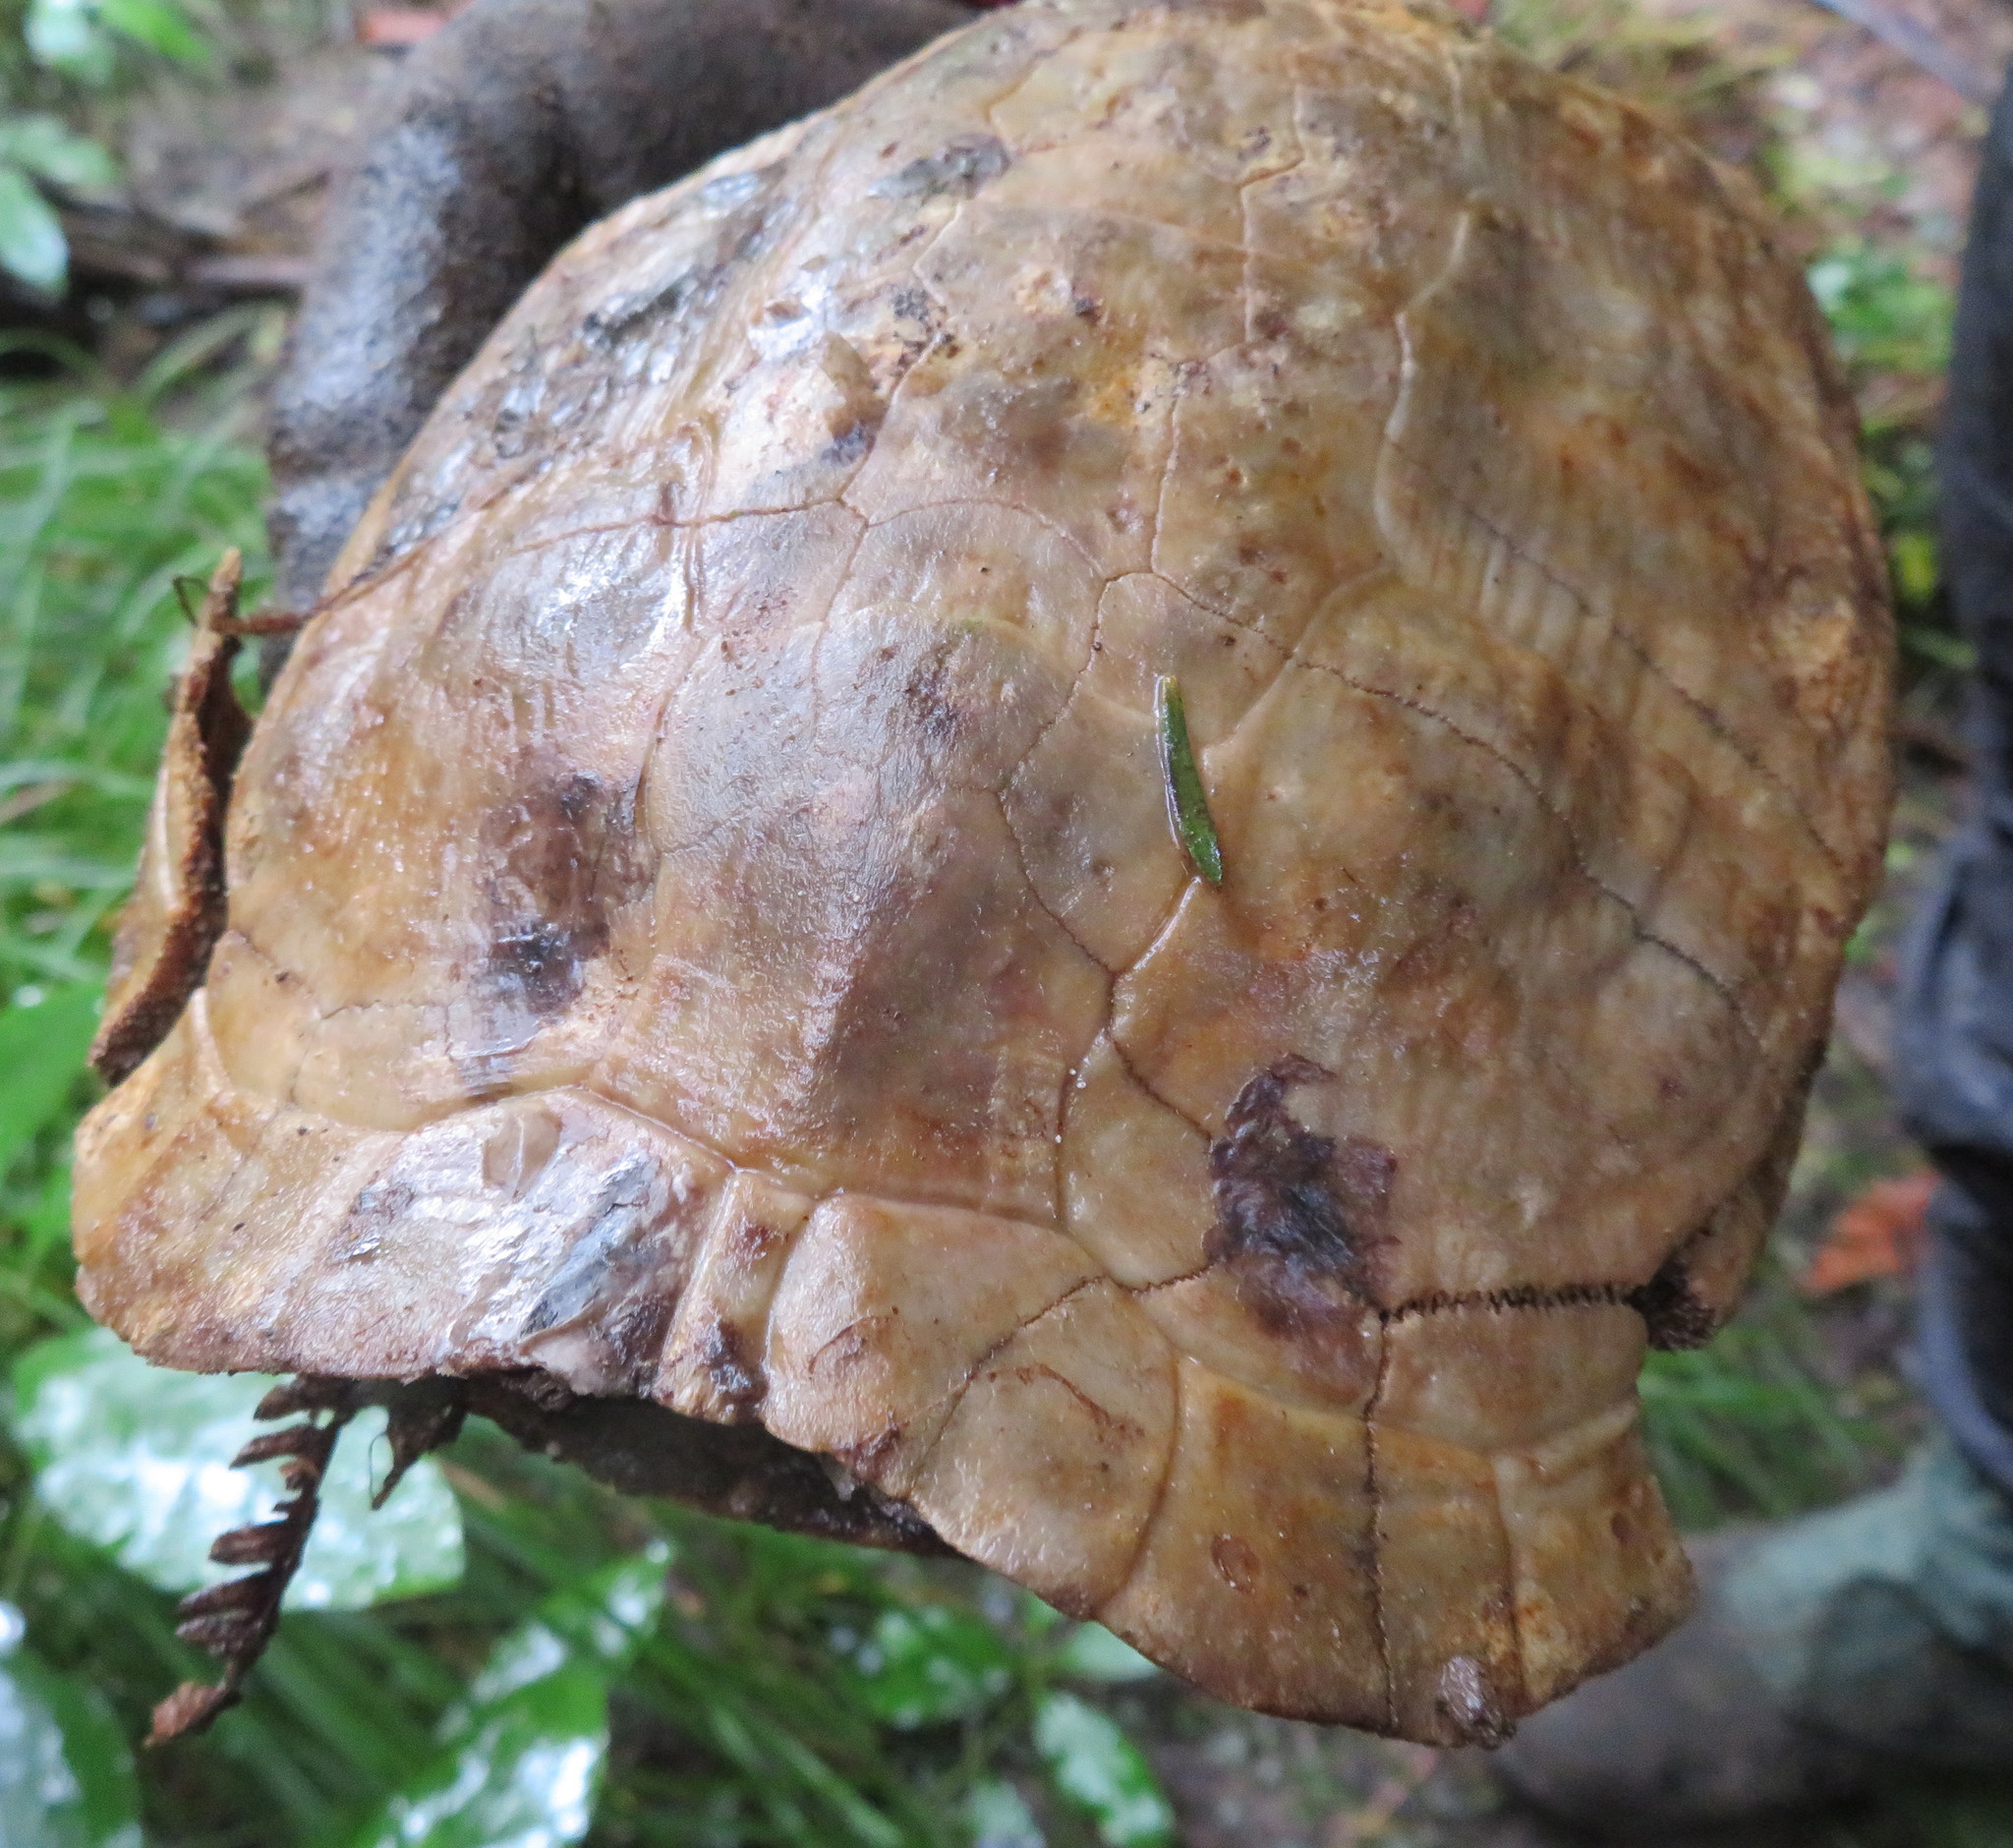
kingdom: Animalia
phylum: Chordata
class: Testudines
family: Emydidae
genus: Trachemys
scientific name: Trachemys scripta
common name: Slider
